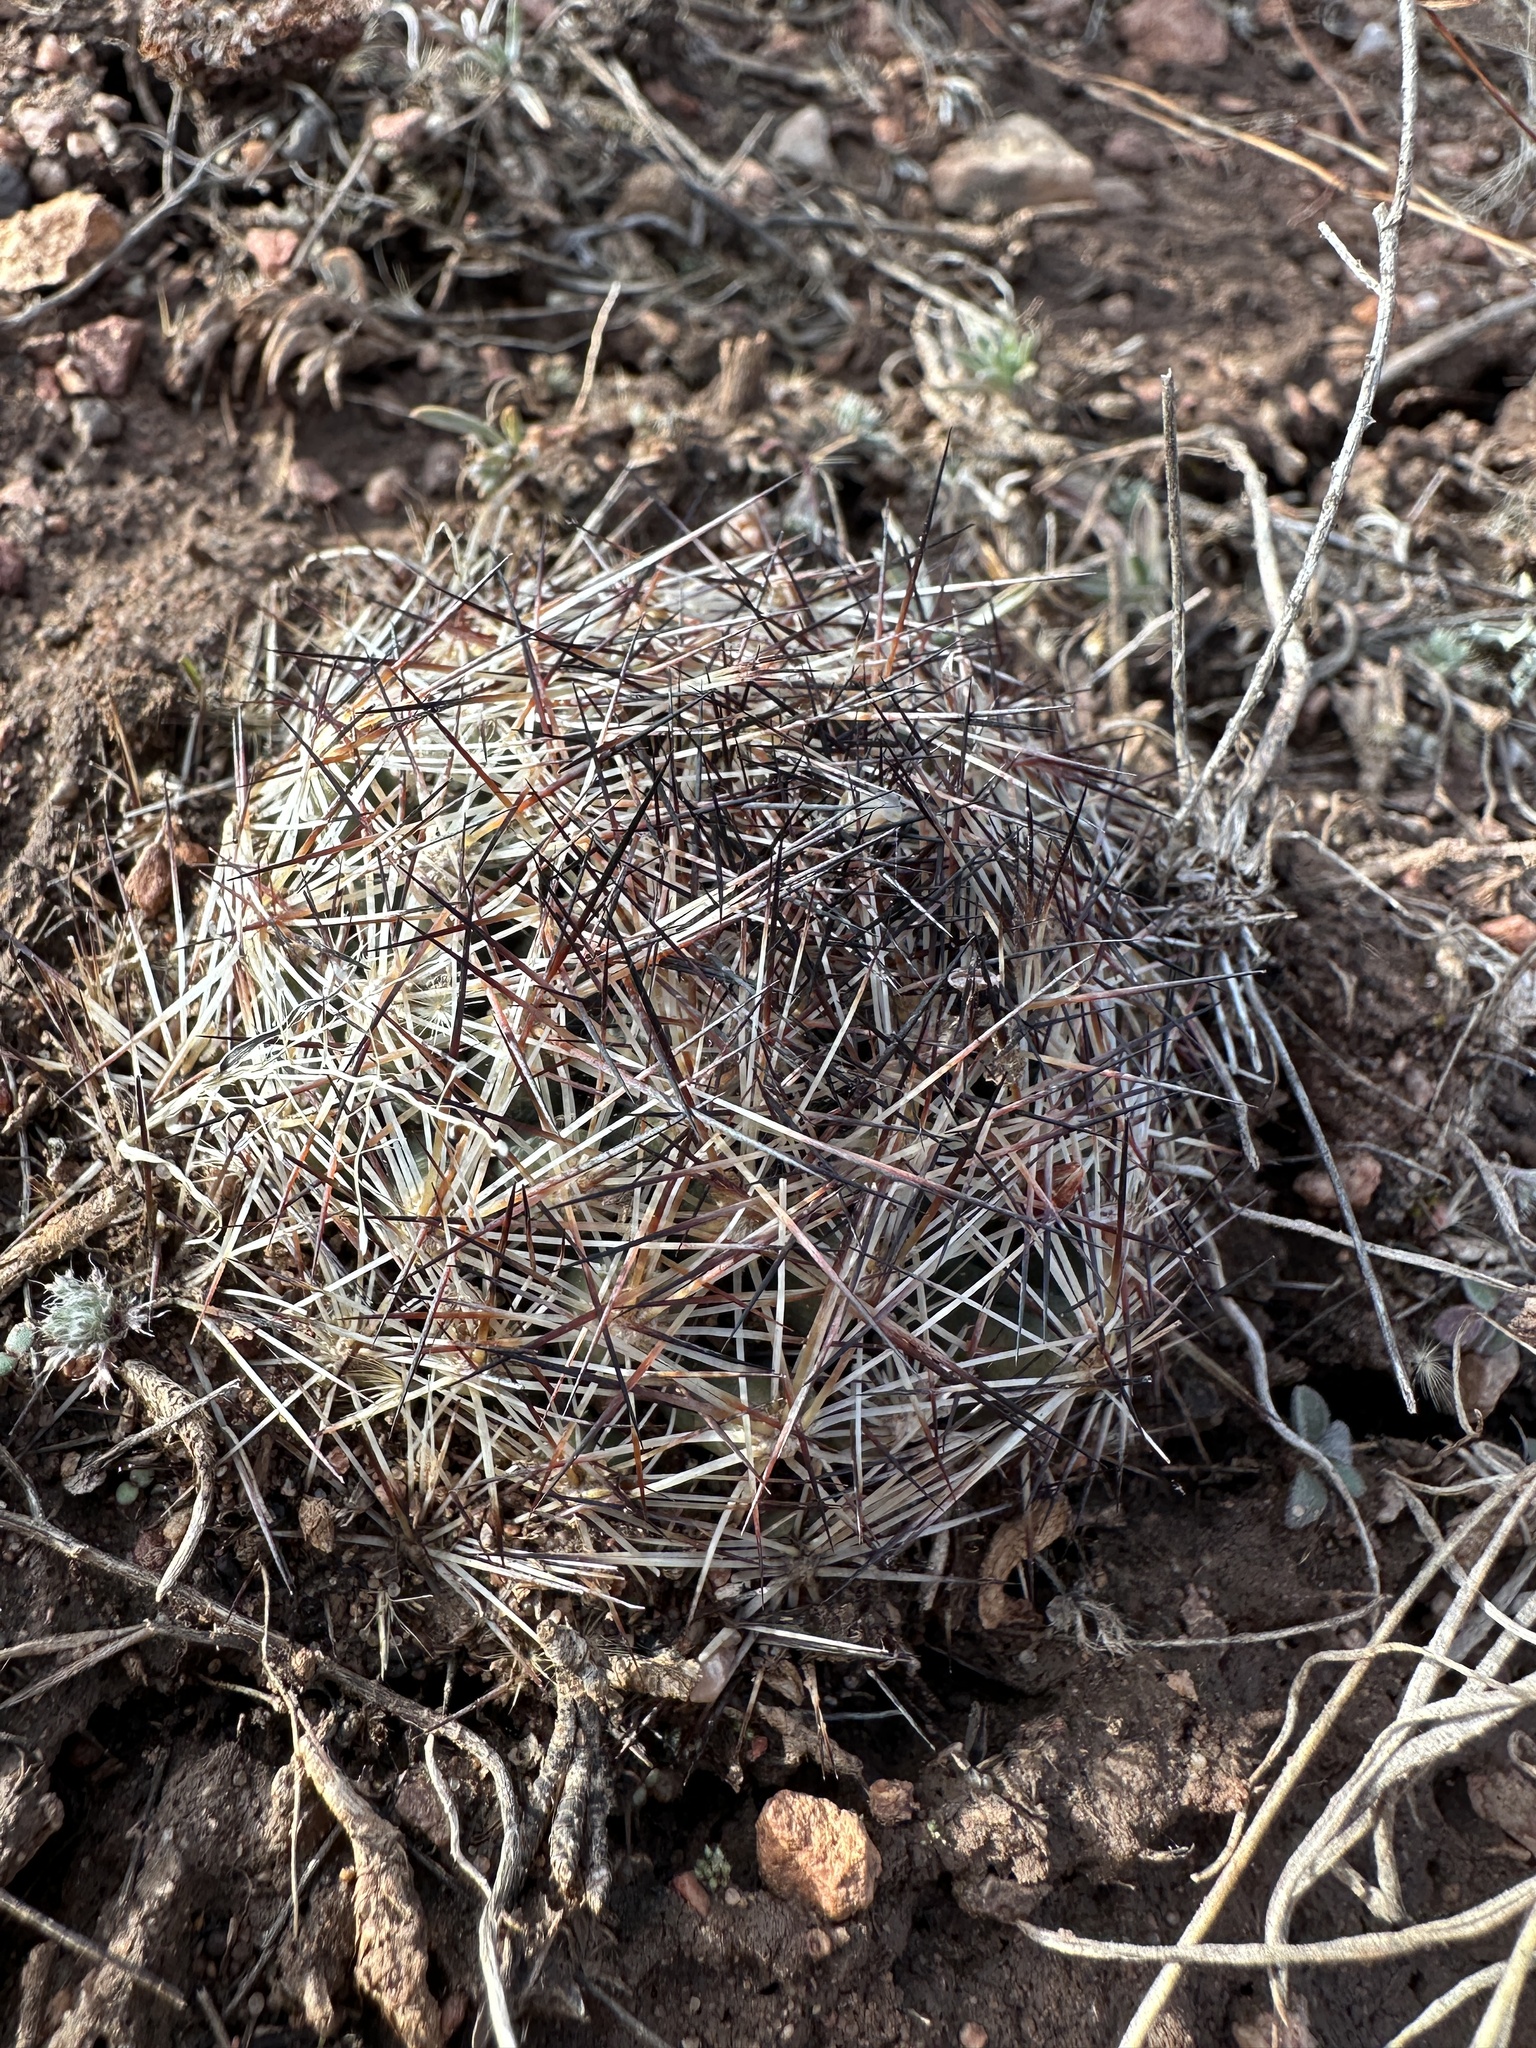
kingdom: Plantae
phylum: Tracheophyta
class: Magnoliopsida
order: Caryophyllales
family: Cactaceae
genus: Pelecyphora
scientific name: Pelecyphora vivipara
